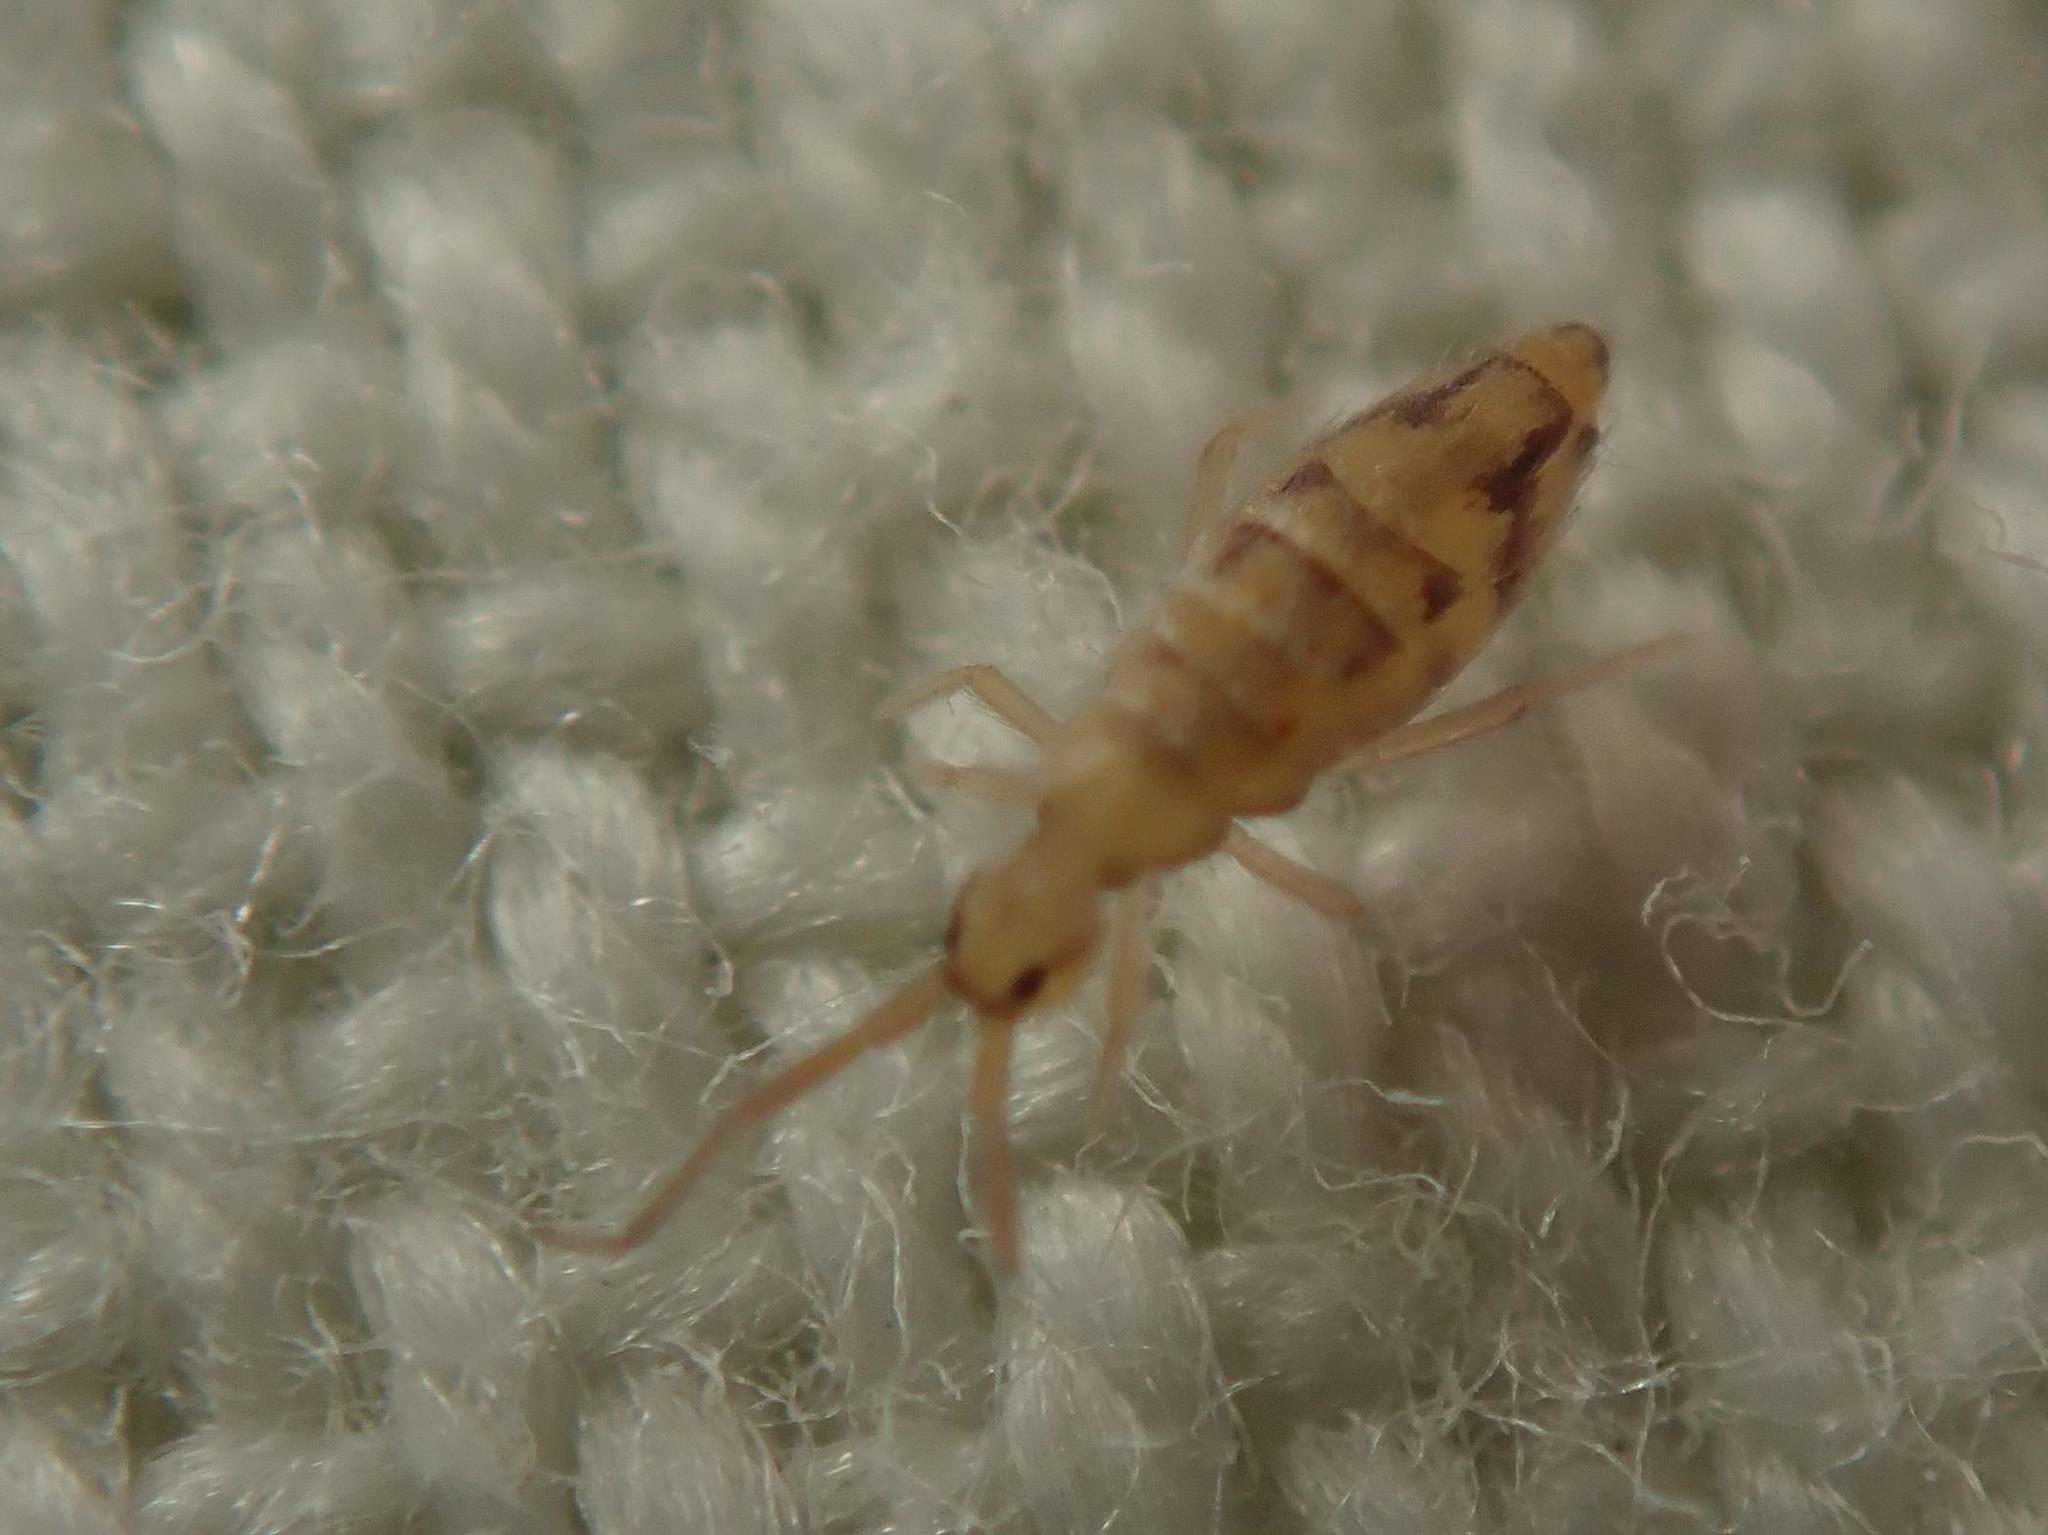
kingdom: Animalia
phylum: Arthropoda
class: Collembola
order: Entomobryomorpha
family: Entomobryidae
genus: Entomobrya
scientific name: Entomobrya nivalis
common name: Cosmopolitan springtail
